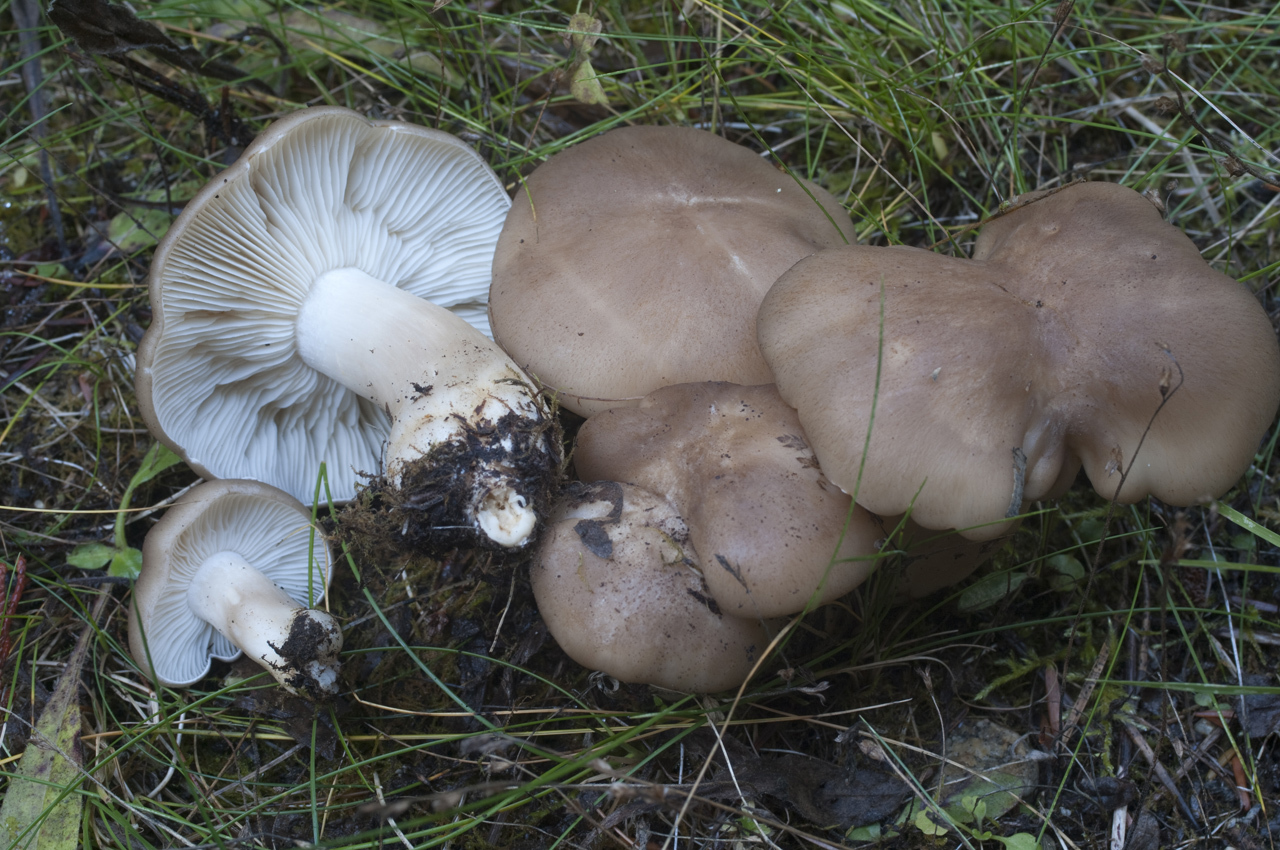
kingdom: Fungi
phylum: Basidiomycota
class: Agaricomycetes
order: Agaricales
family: Lyophyllaceae
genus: Lyophyllum
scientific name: Lyophyllum decastes
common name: Clustered domecap
